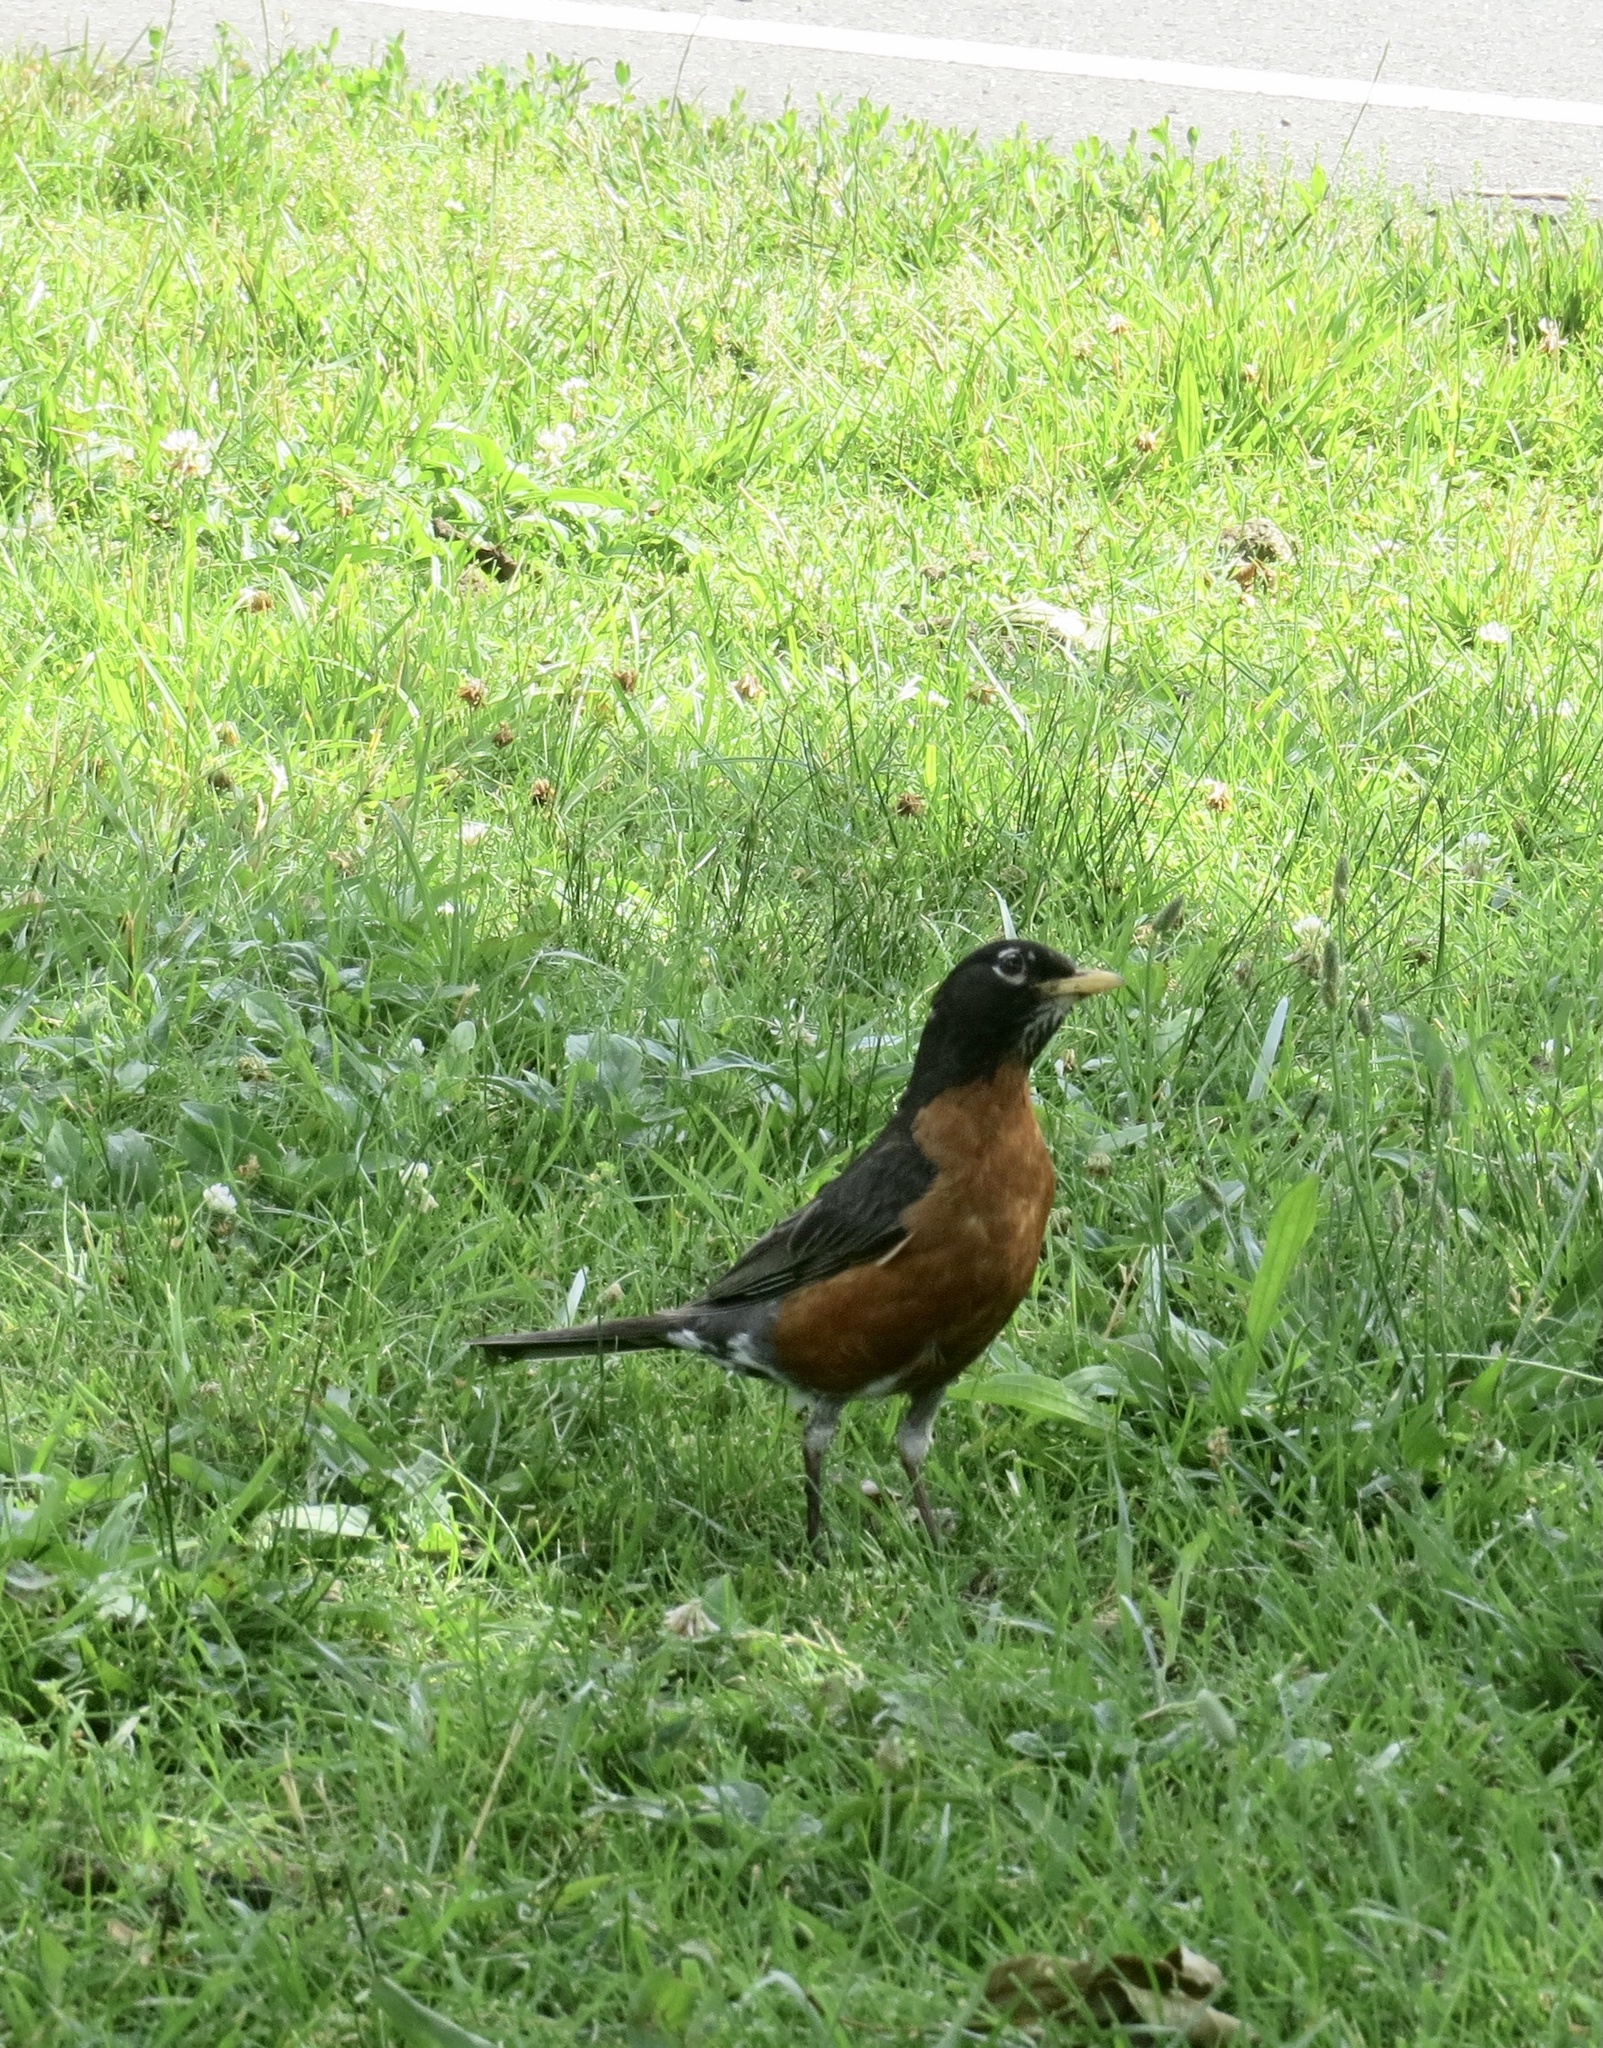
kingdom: Animalia
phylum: Chordata
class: Aves
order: Passeriformes
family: Turdidae
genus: Turdus
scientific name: Turdus migratorius
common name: American robin
